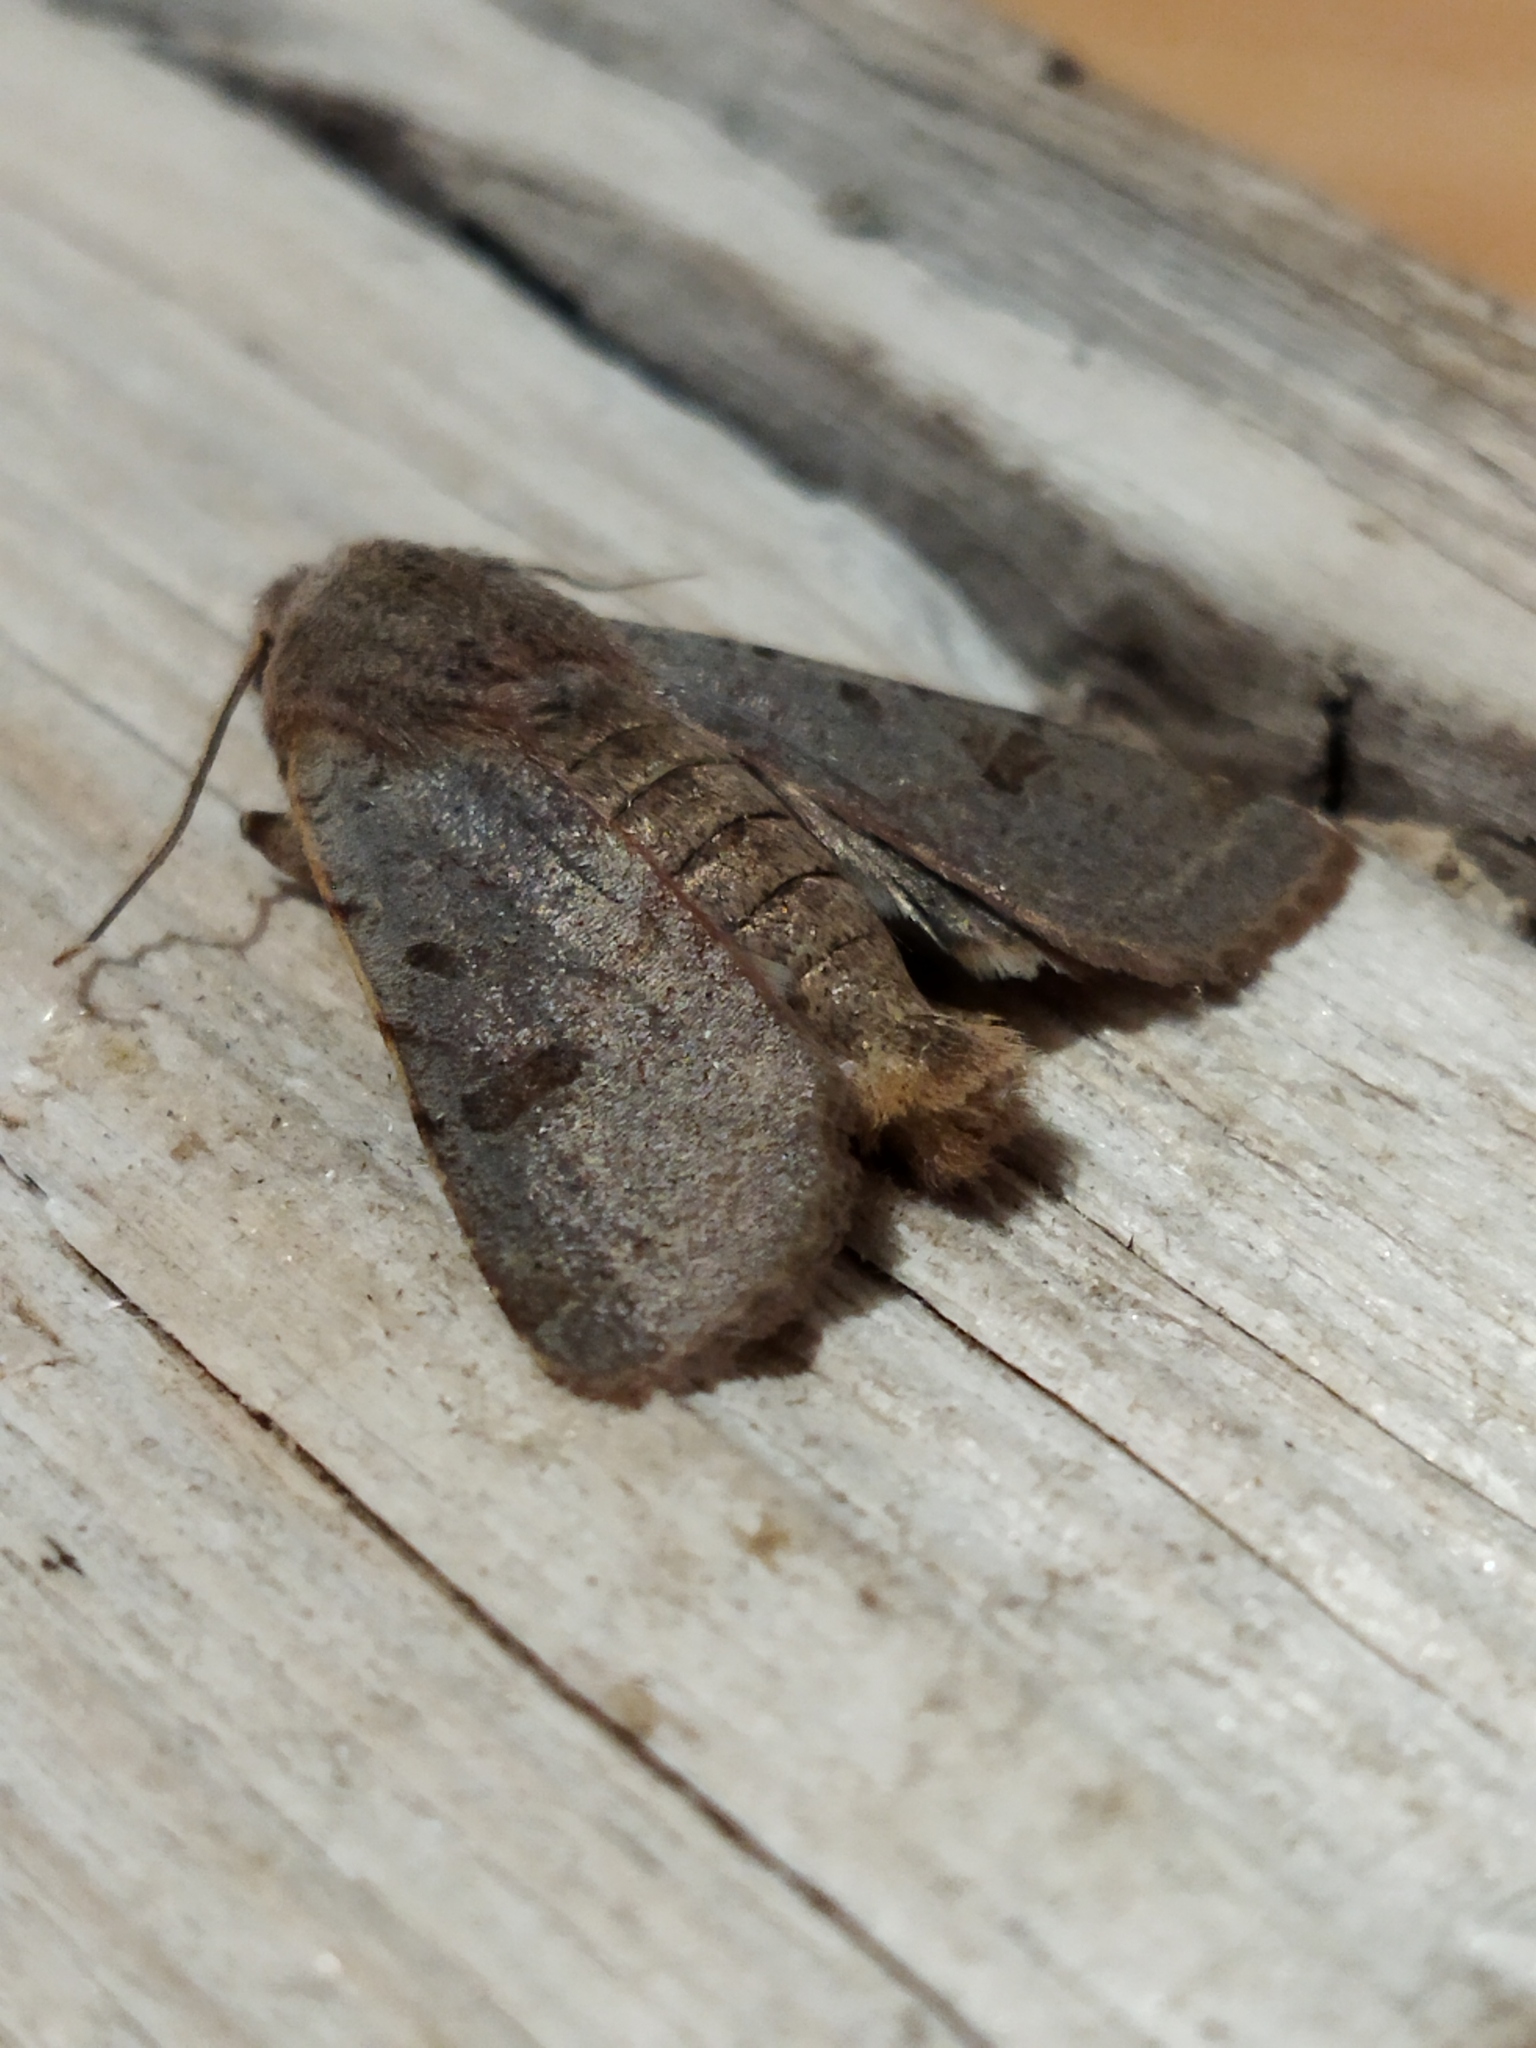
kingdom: Animalia
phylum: Arthropoda
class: Insecta
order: Lepidoptera
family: Noctuidae
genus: Agrochola
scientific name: Agrochola lychnidis
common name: Beaded chestnut
